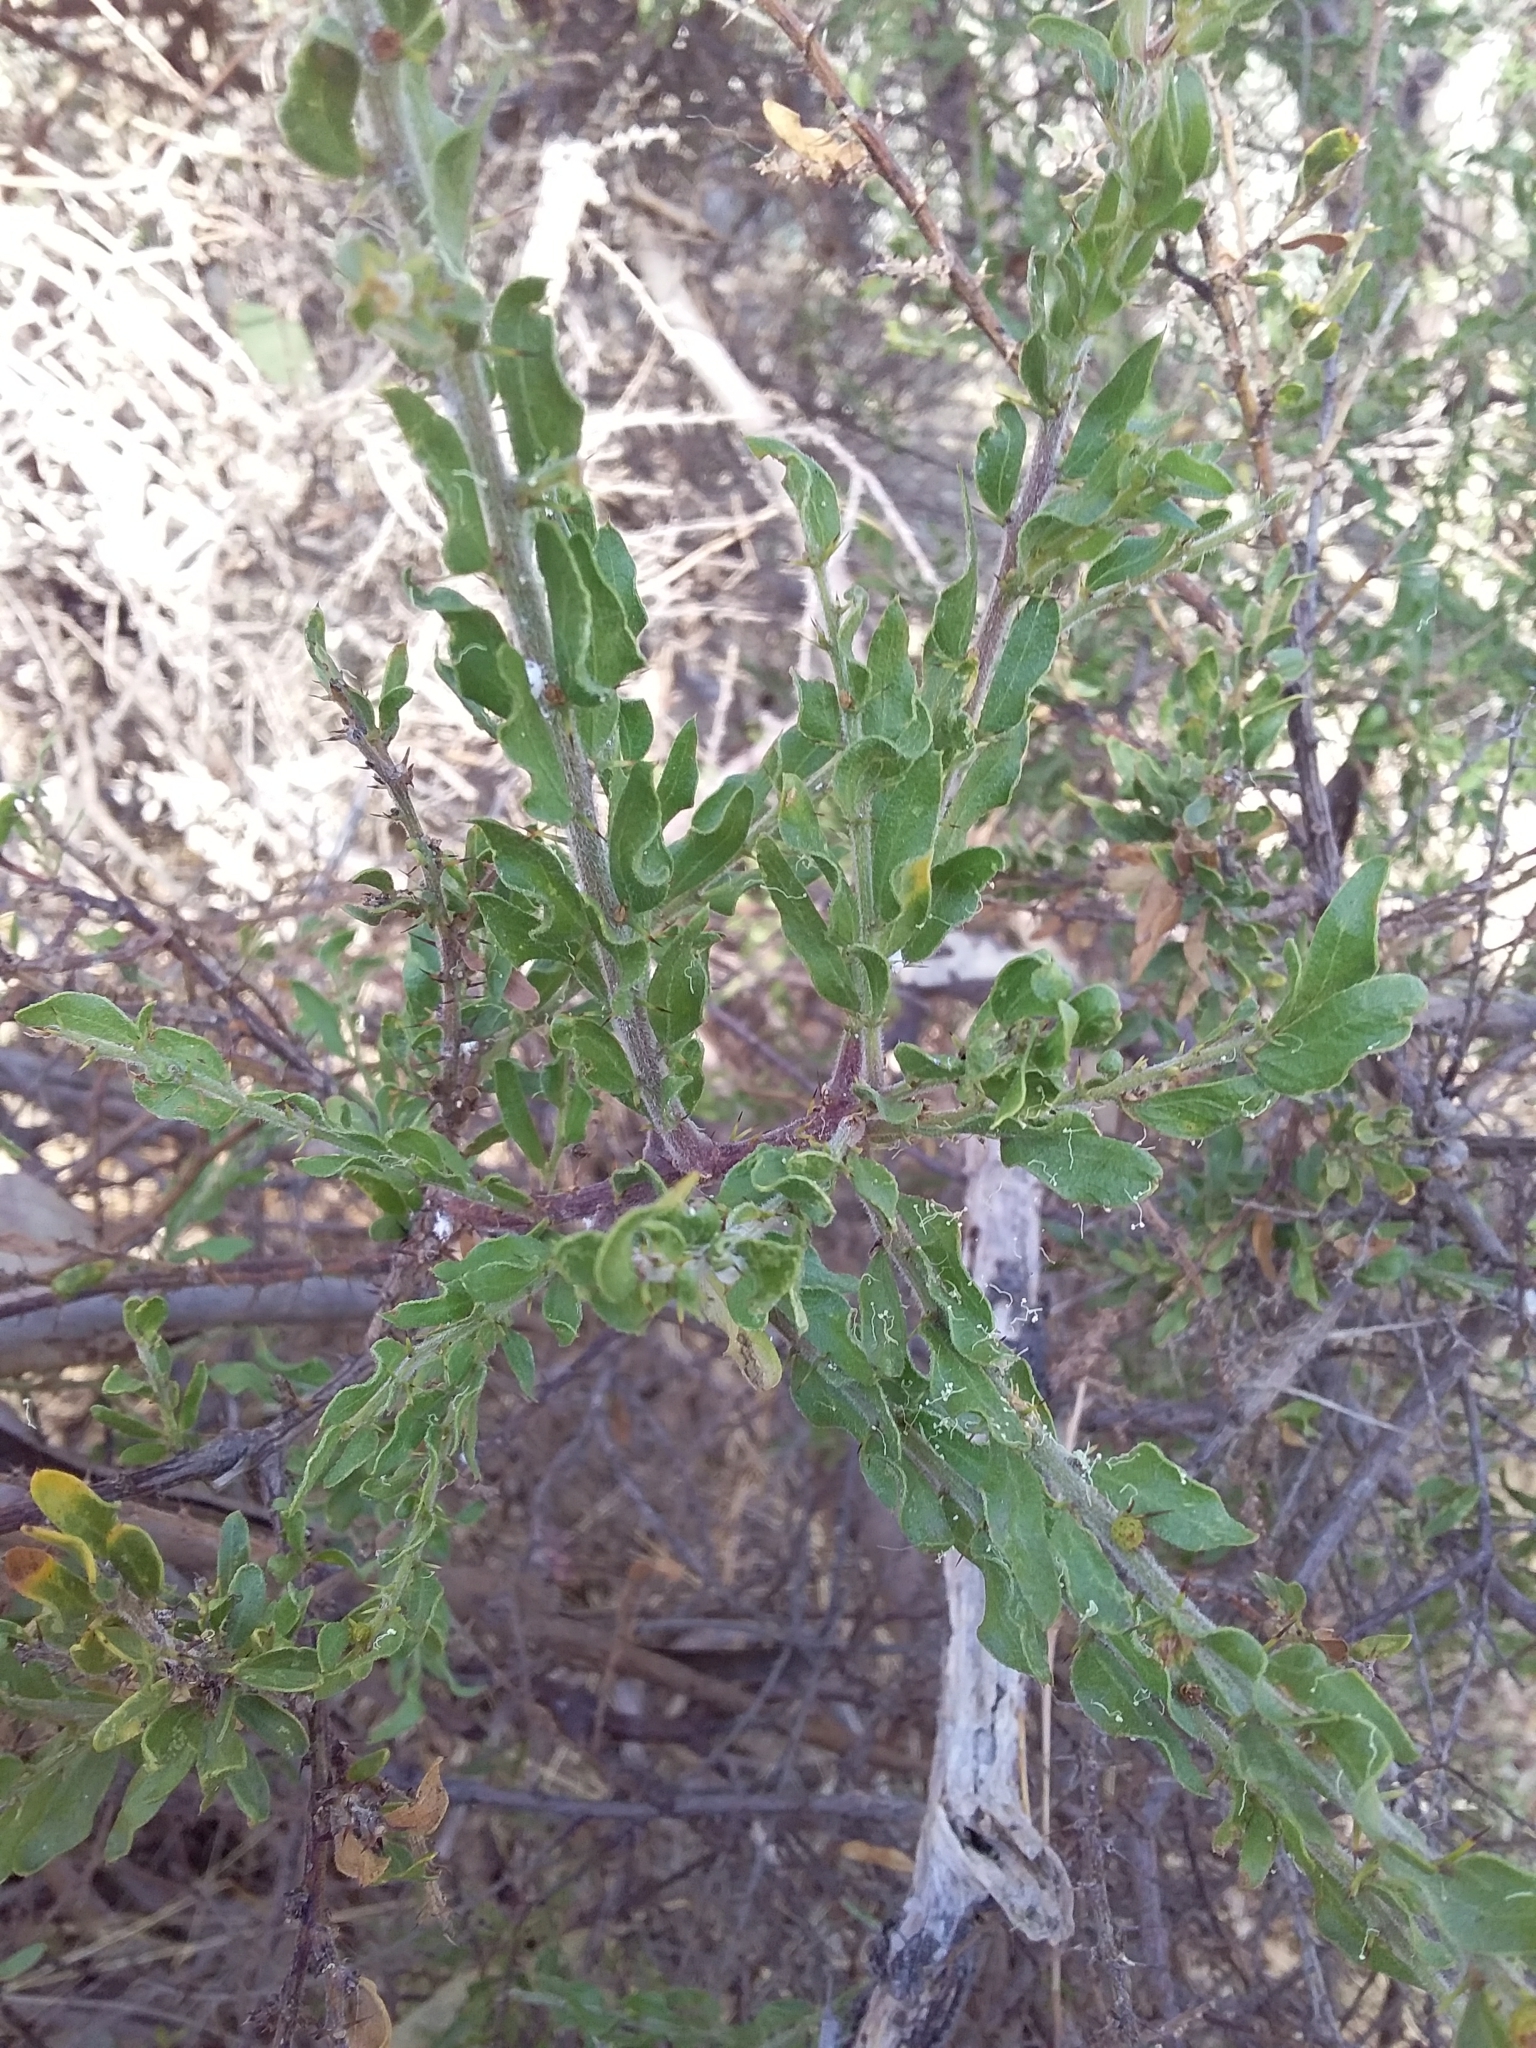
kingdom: Plantae
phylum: Tracheophyta
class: Magnoliopsida
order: Fabales
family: Fabaceae
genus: Acacia
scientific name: Acacia paradoxa
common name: Paradox acacia
